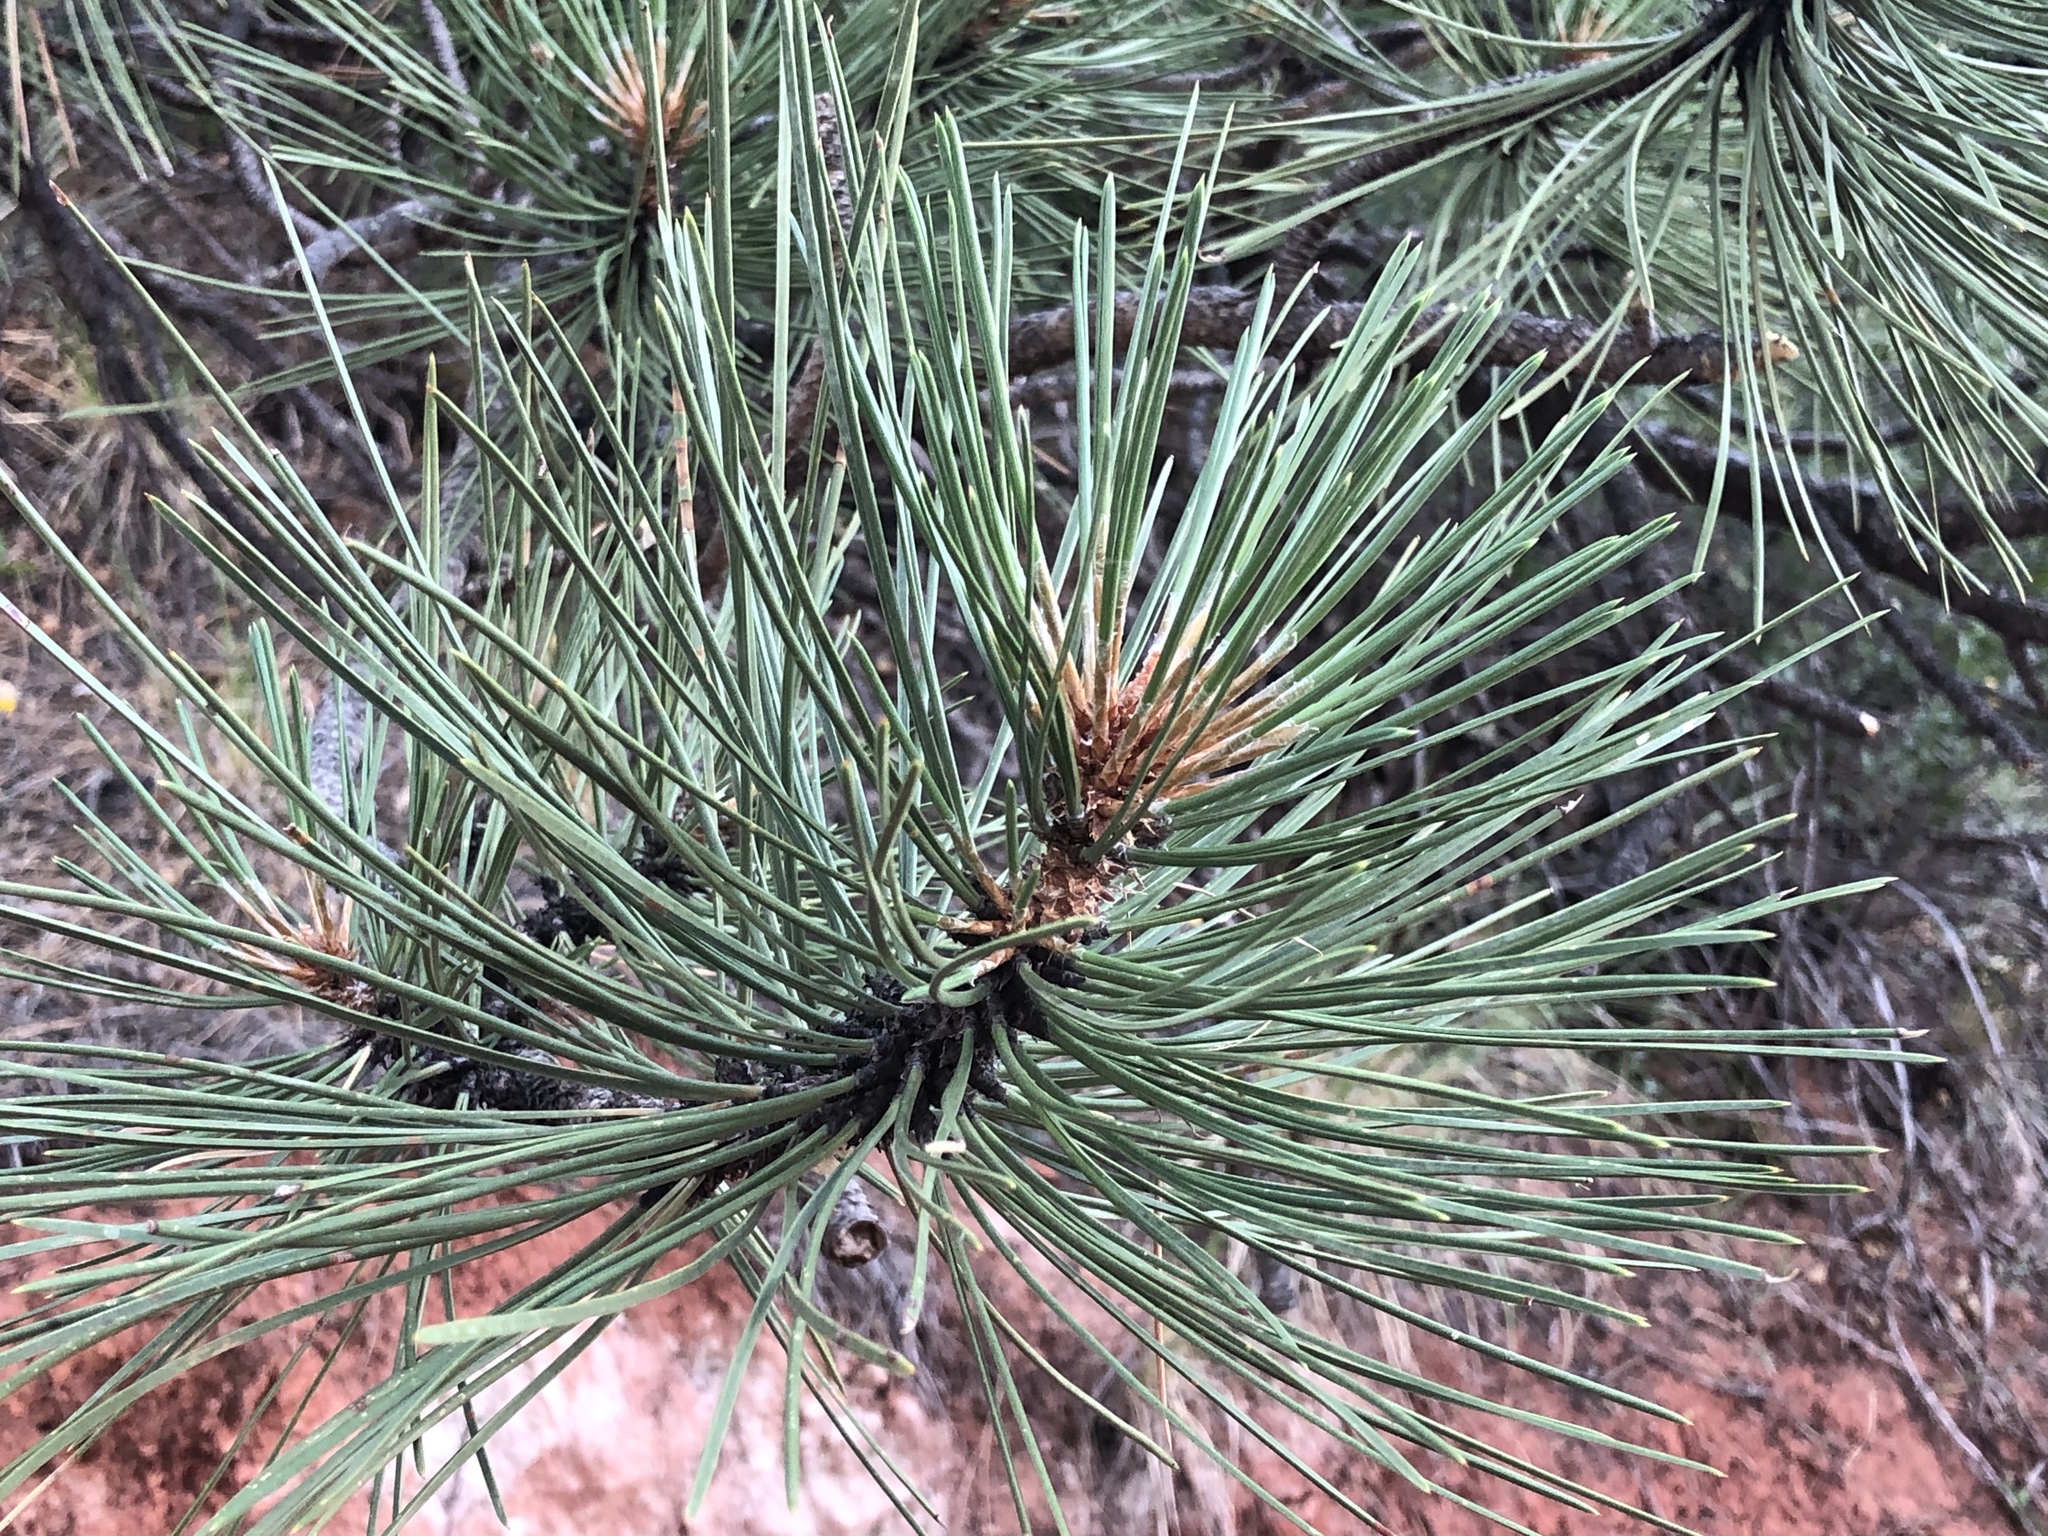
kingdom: Plantae
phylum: Tracheophyta
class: Pinopsida
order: Pinales
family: Pinaceae
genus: Pinus
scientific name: Pinus ponderosa
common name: Western yellow-pine
